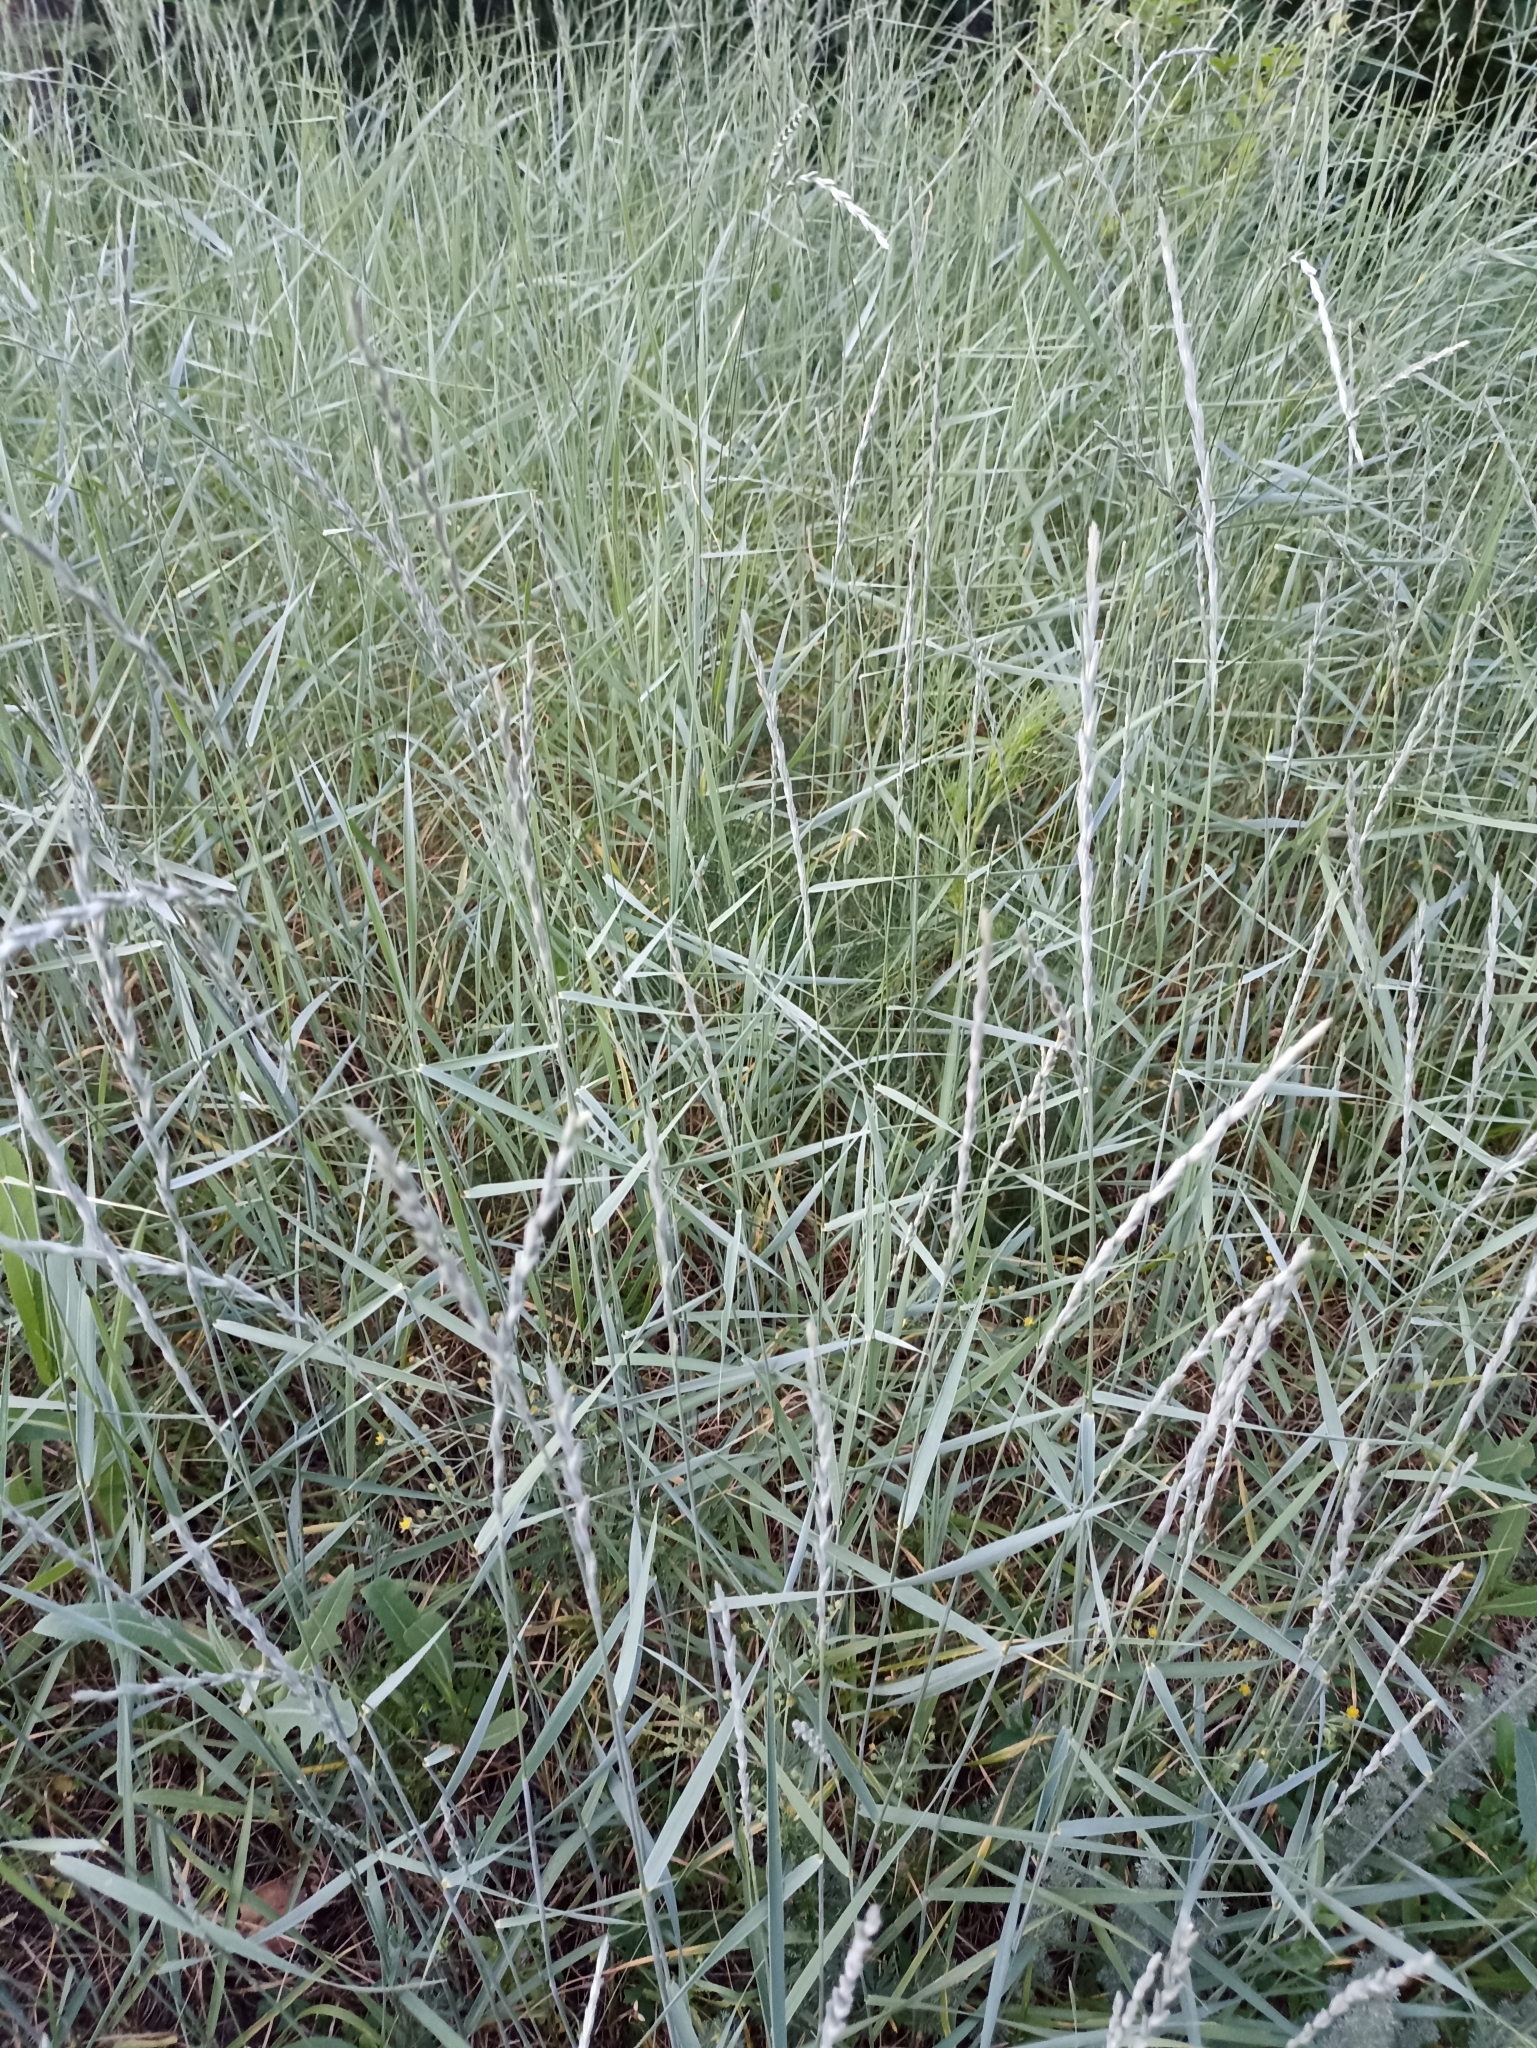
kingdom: Plantae
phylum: Tracheophyta
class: Liliopsida
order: Poales
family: Poaceae
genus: Thinopyrum
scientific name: Thinopyrum intermedium
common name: Intermediate wheatgrass
